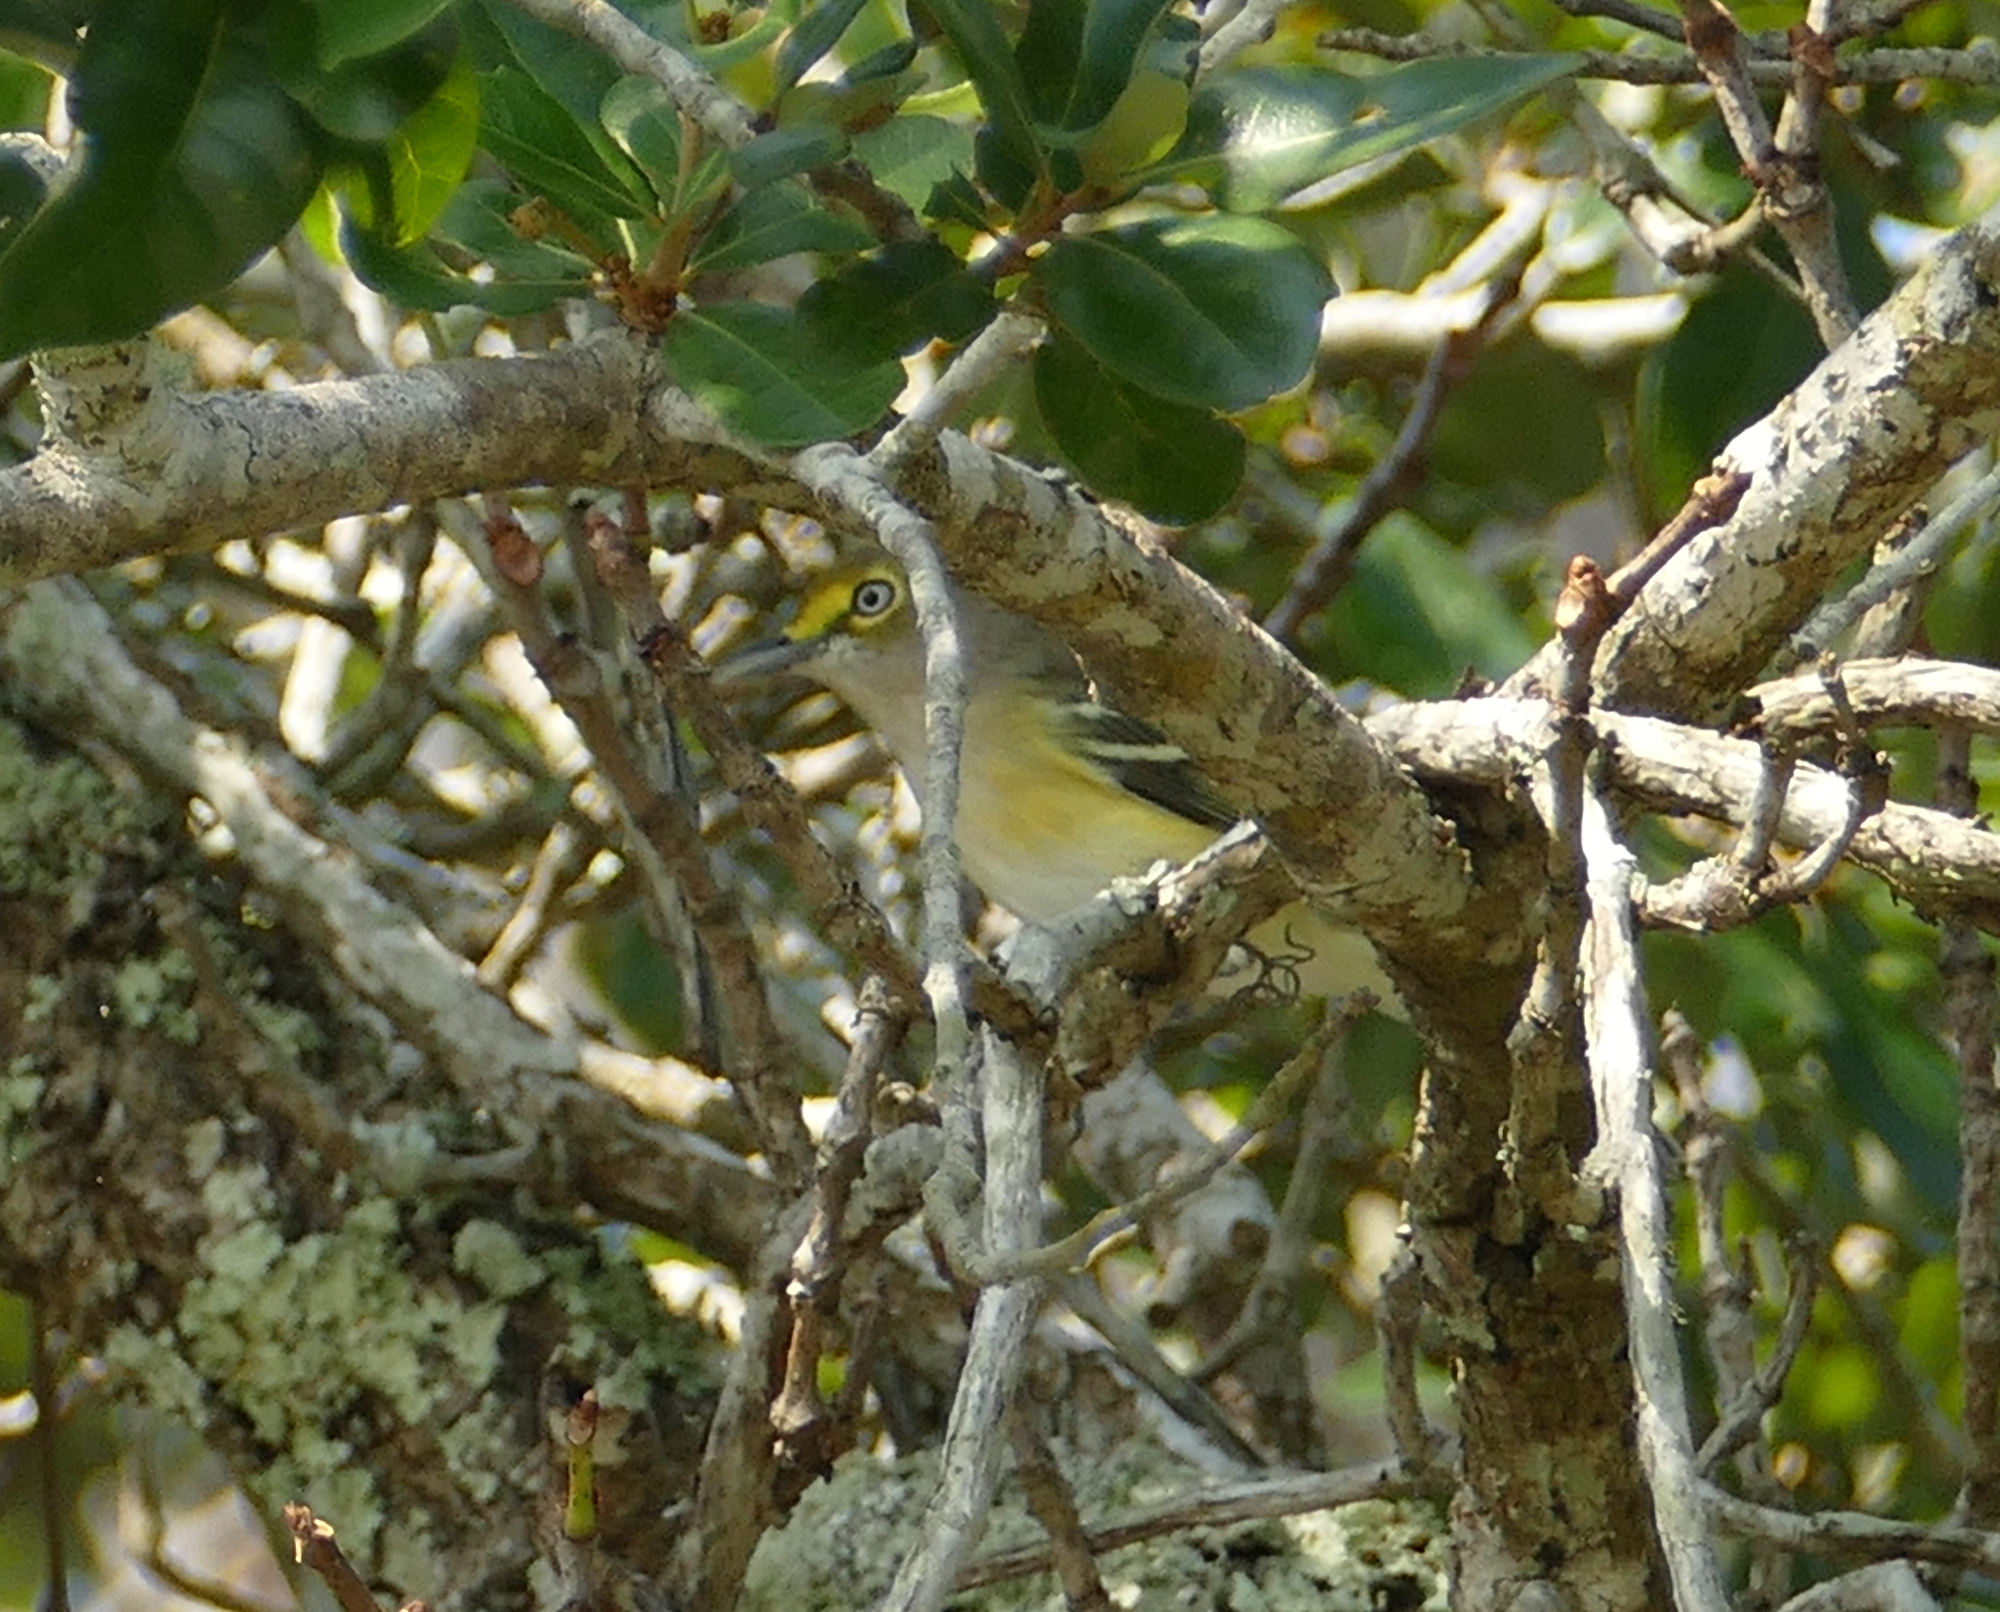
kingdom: Animalia
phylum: Chordata
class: Aves
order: Passeriformes
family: Vireonidae
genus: Vireo
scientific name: Vireo griseus
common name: White-eyed vireo
